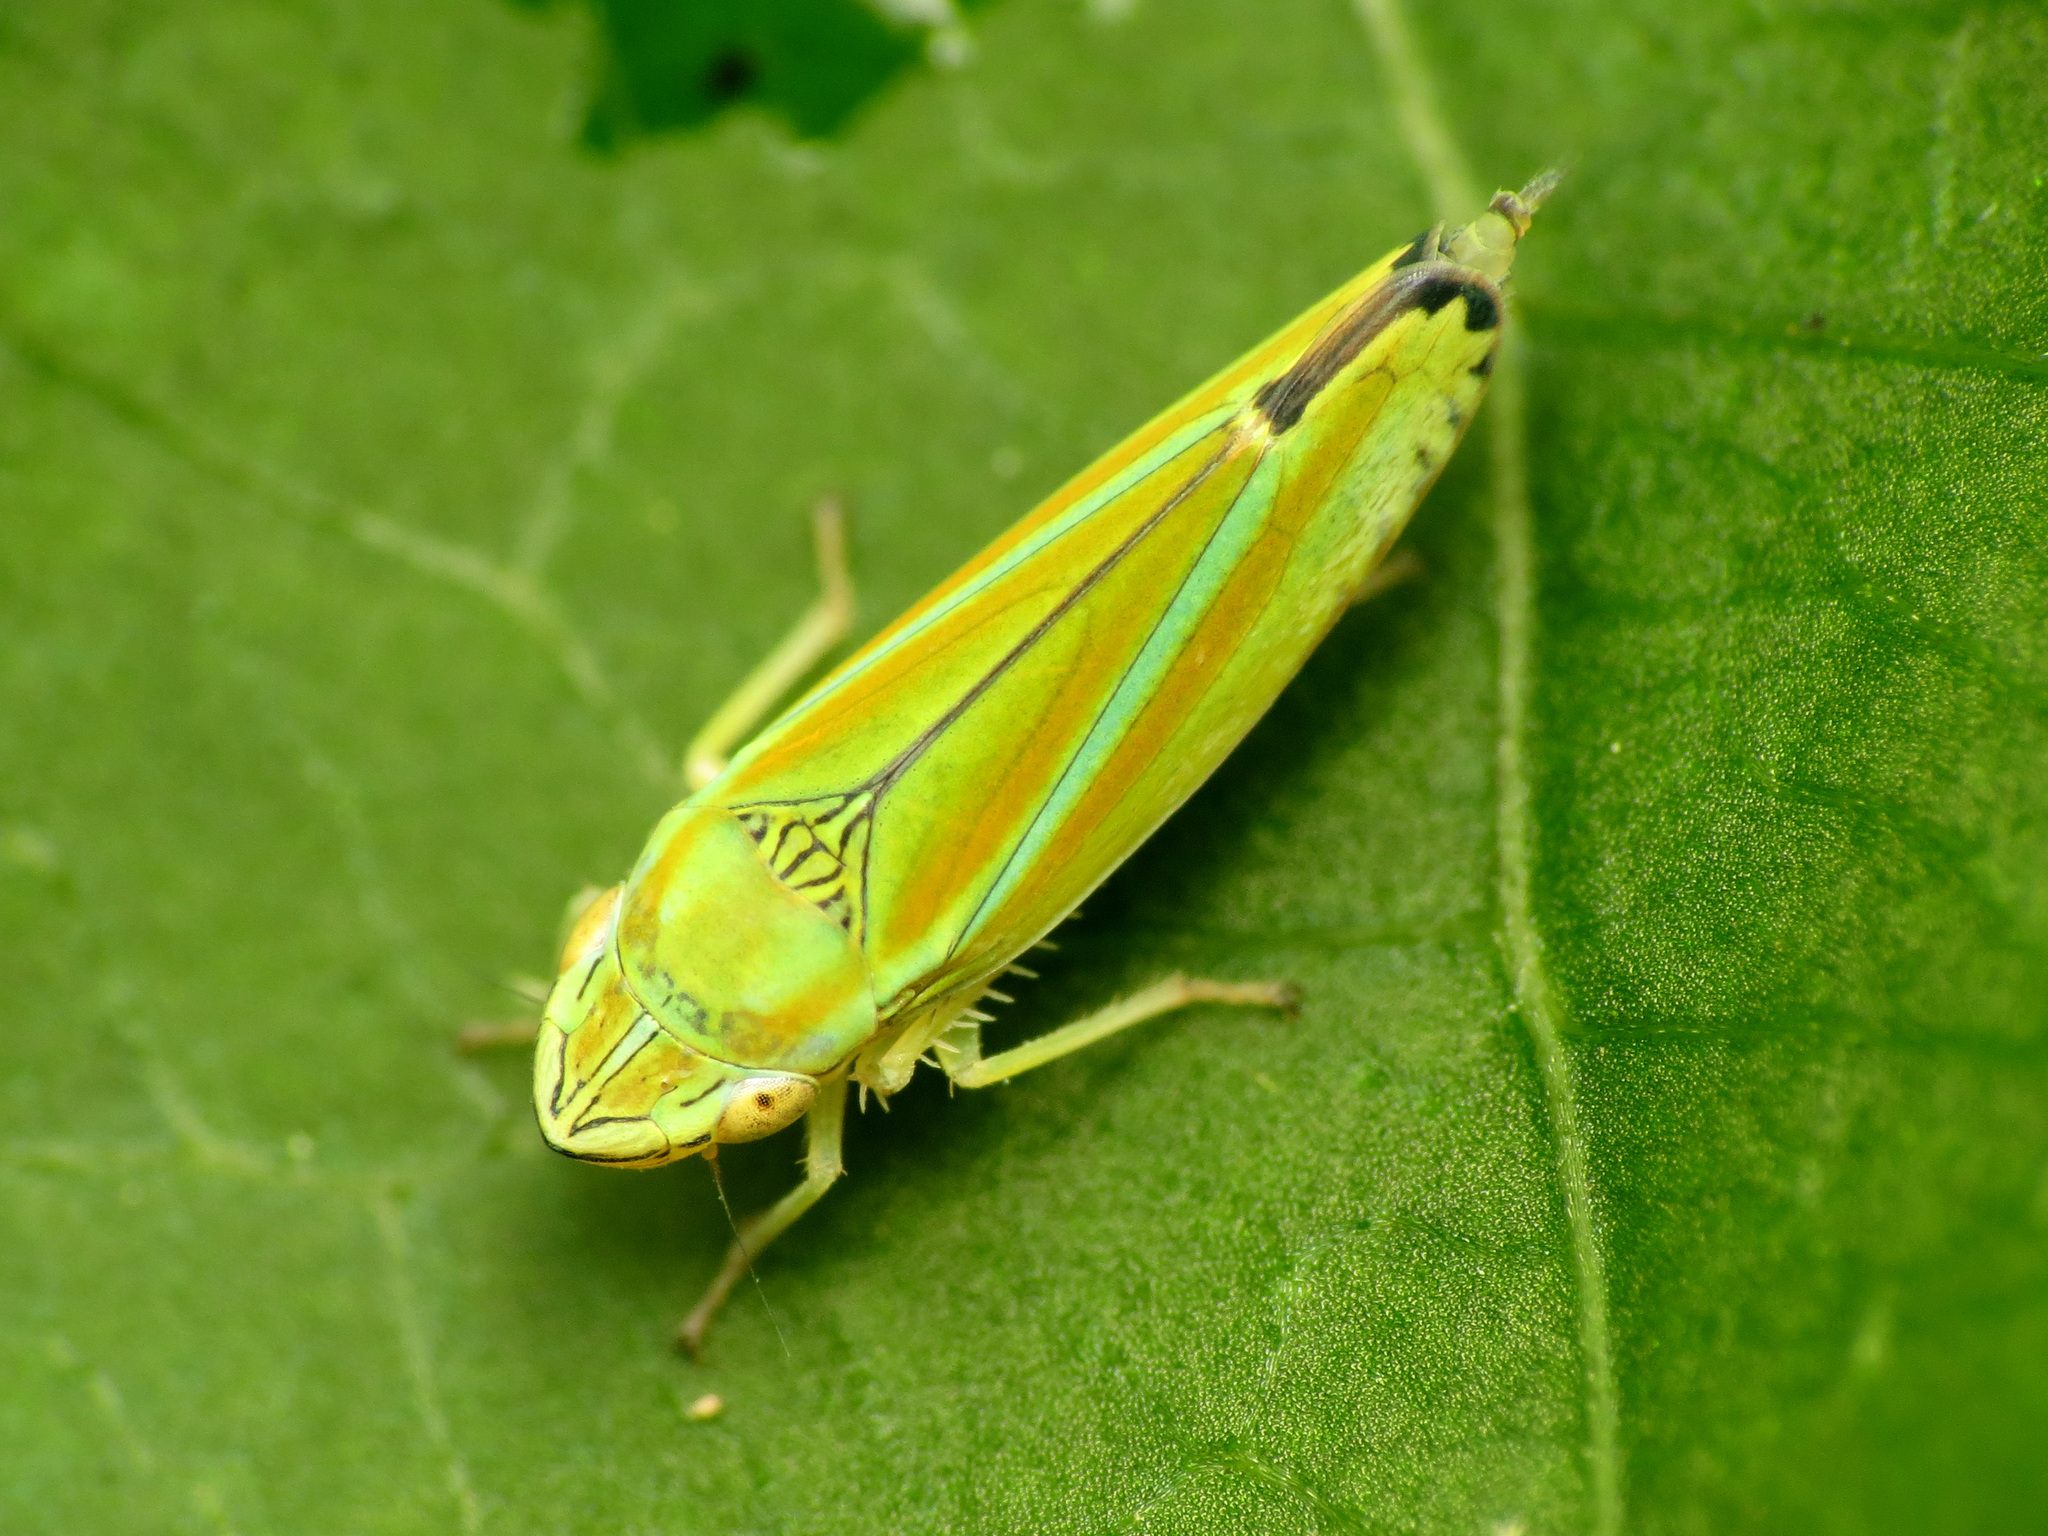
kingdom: Animalia
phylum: Arthropoda
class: Insecta
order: Hemiptera
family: Cicadellidae
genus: Graphocephala
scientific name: Graphocephala versuta
